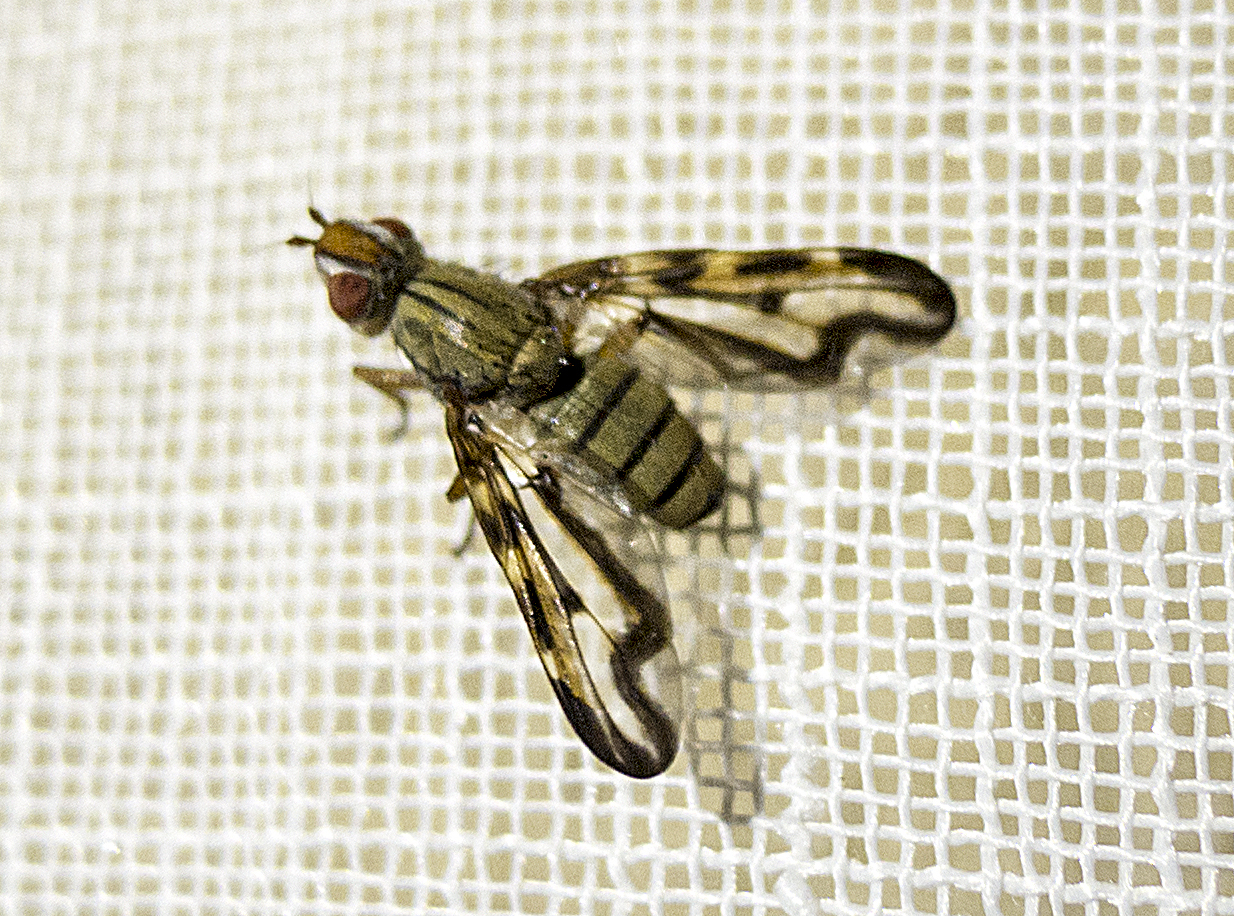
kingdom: Animalia
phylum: Arthropoda
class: Insecta
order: Diptera
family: Ulidiidae
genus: Otites
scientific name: Otites lamed
